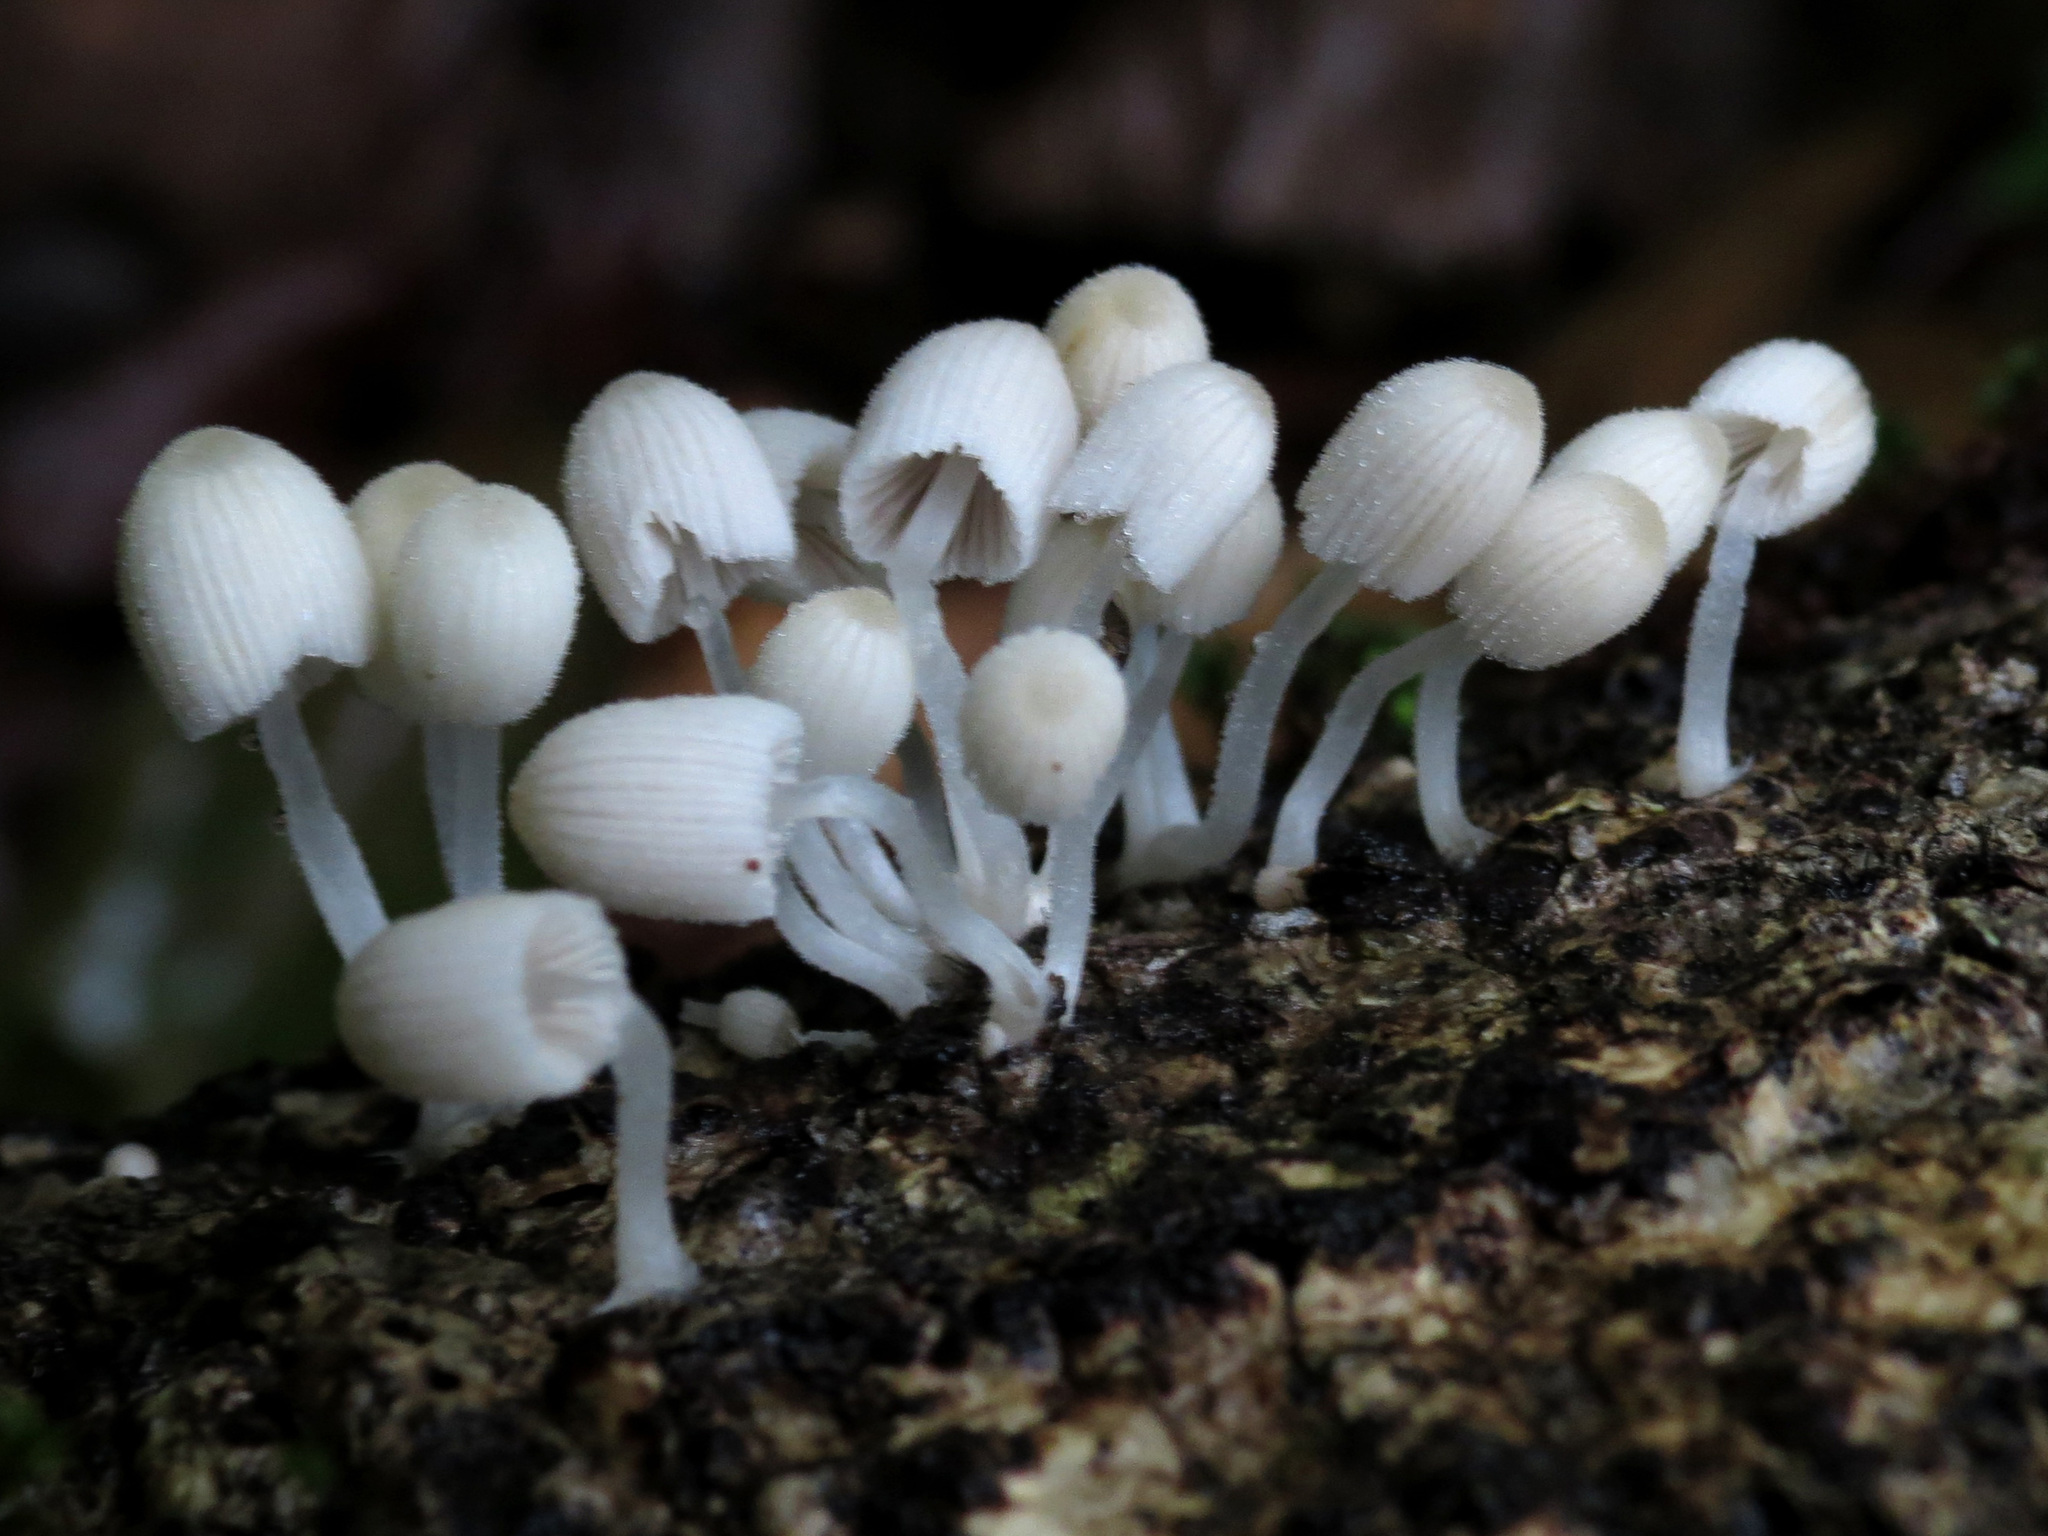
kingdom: Fungi
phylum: Basidiomycota
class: Agaricomycetes
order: Agaricales
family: Psathyrellaceae
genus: Coprinellus
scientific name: Coprinellus disseminatus
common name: Fairies' bonnets
